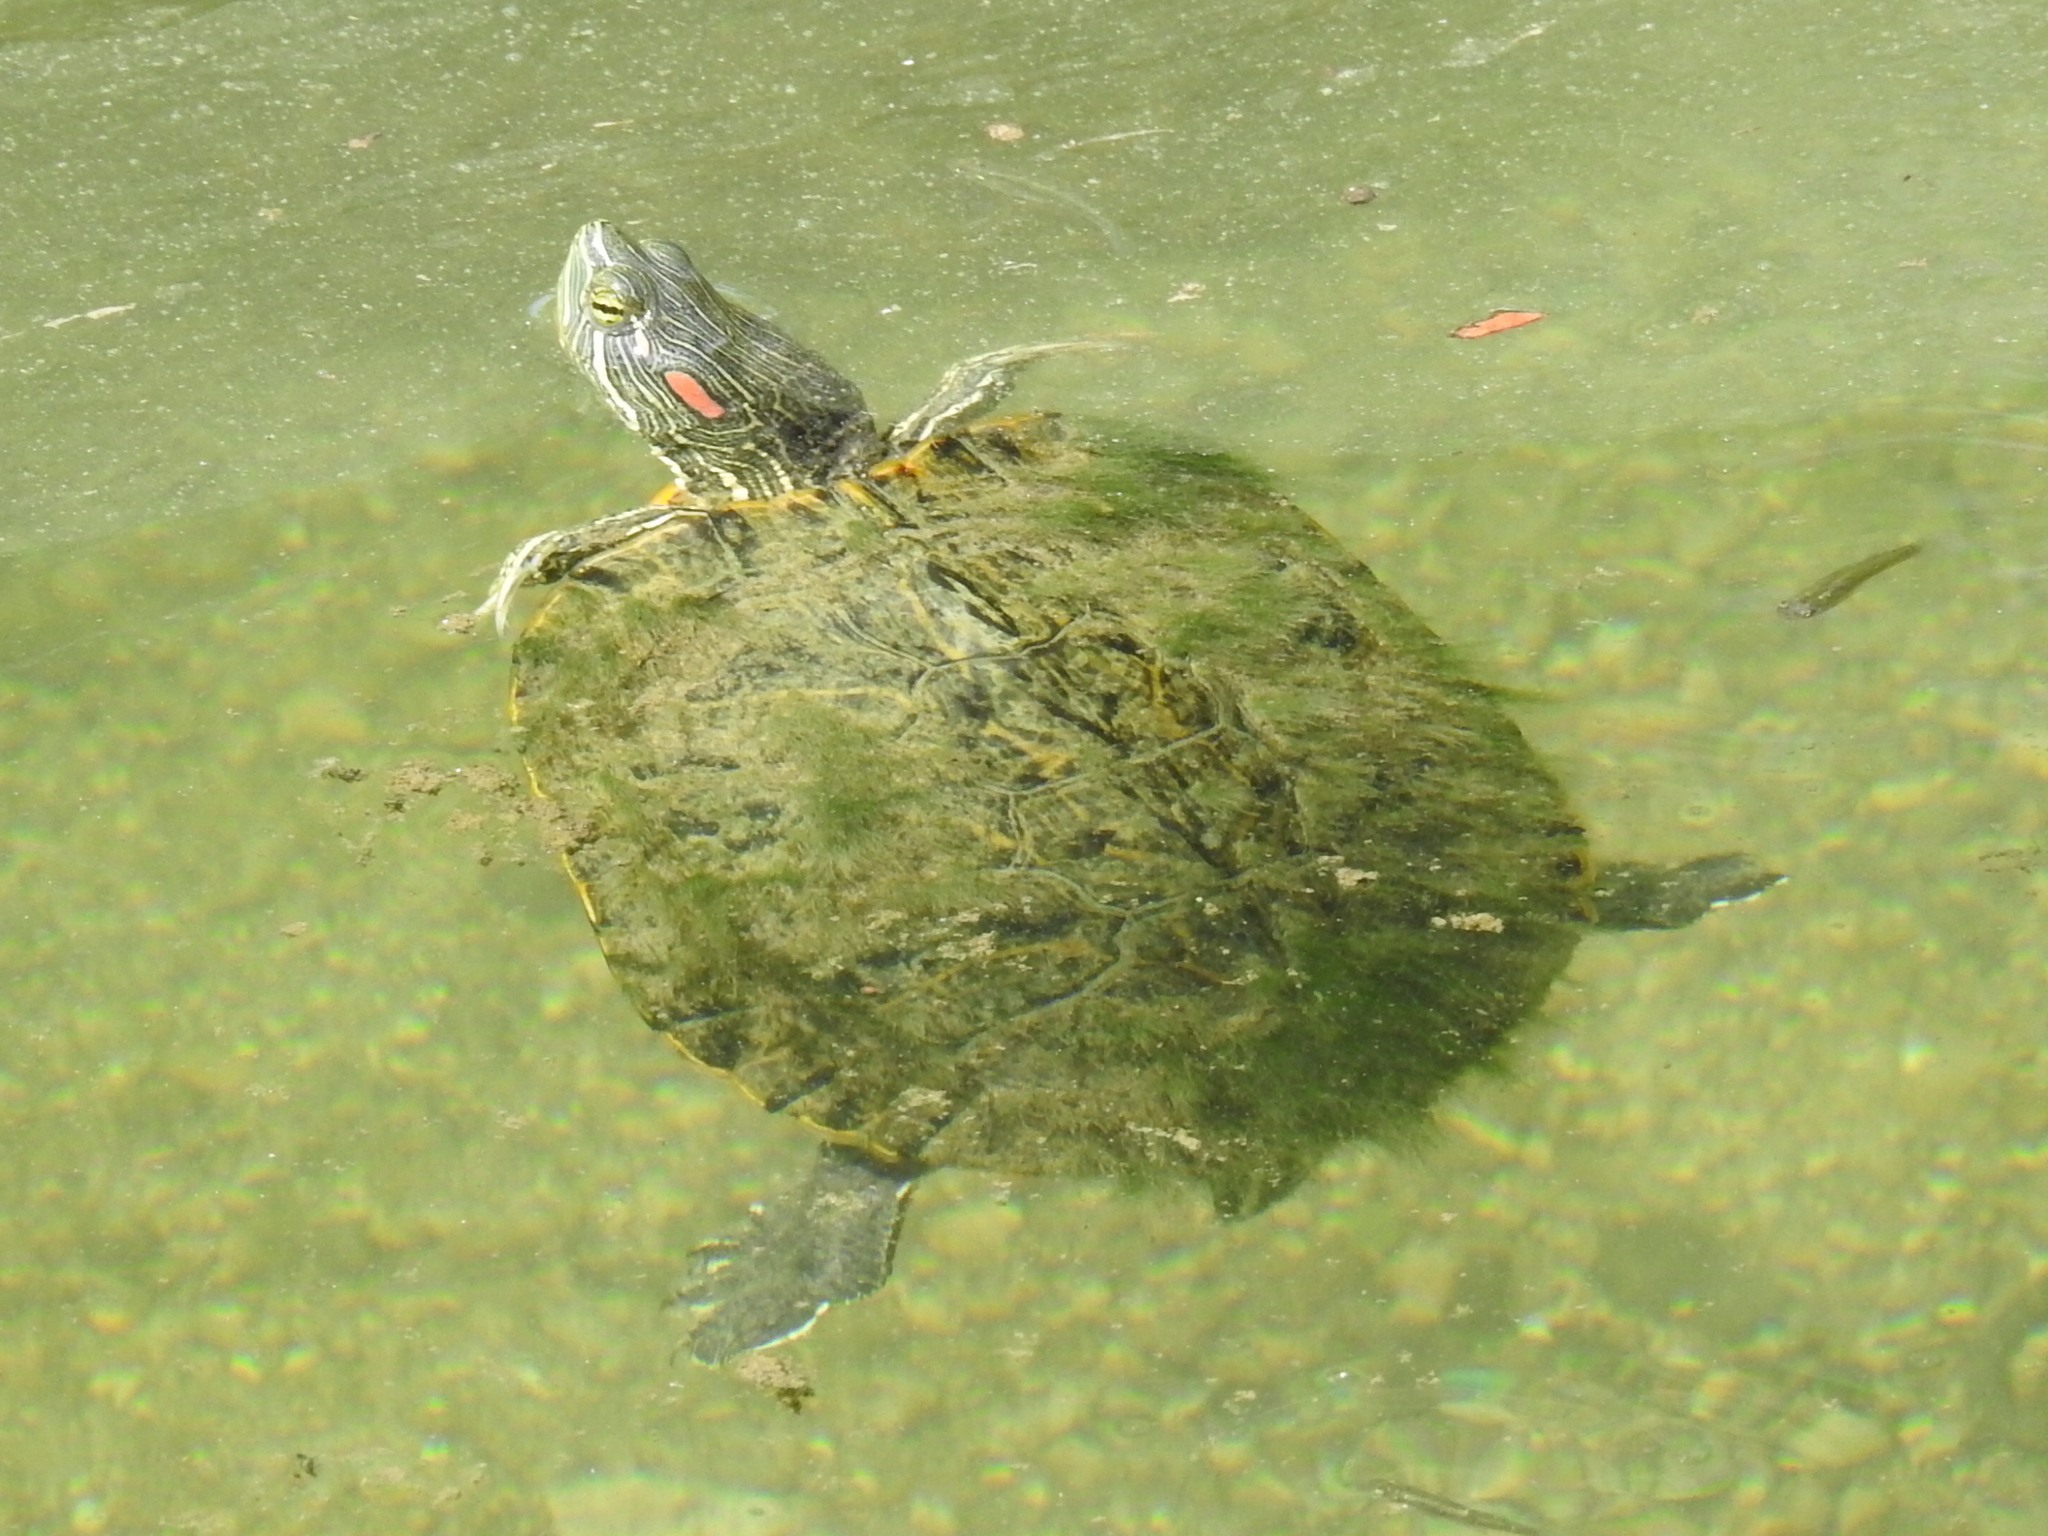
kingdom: Animalia
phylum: Chordata
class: Testudines
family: Emydidae
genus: Trachemys
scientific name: Trachemys scripta
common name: Slider
